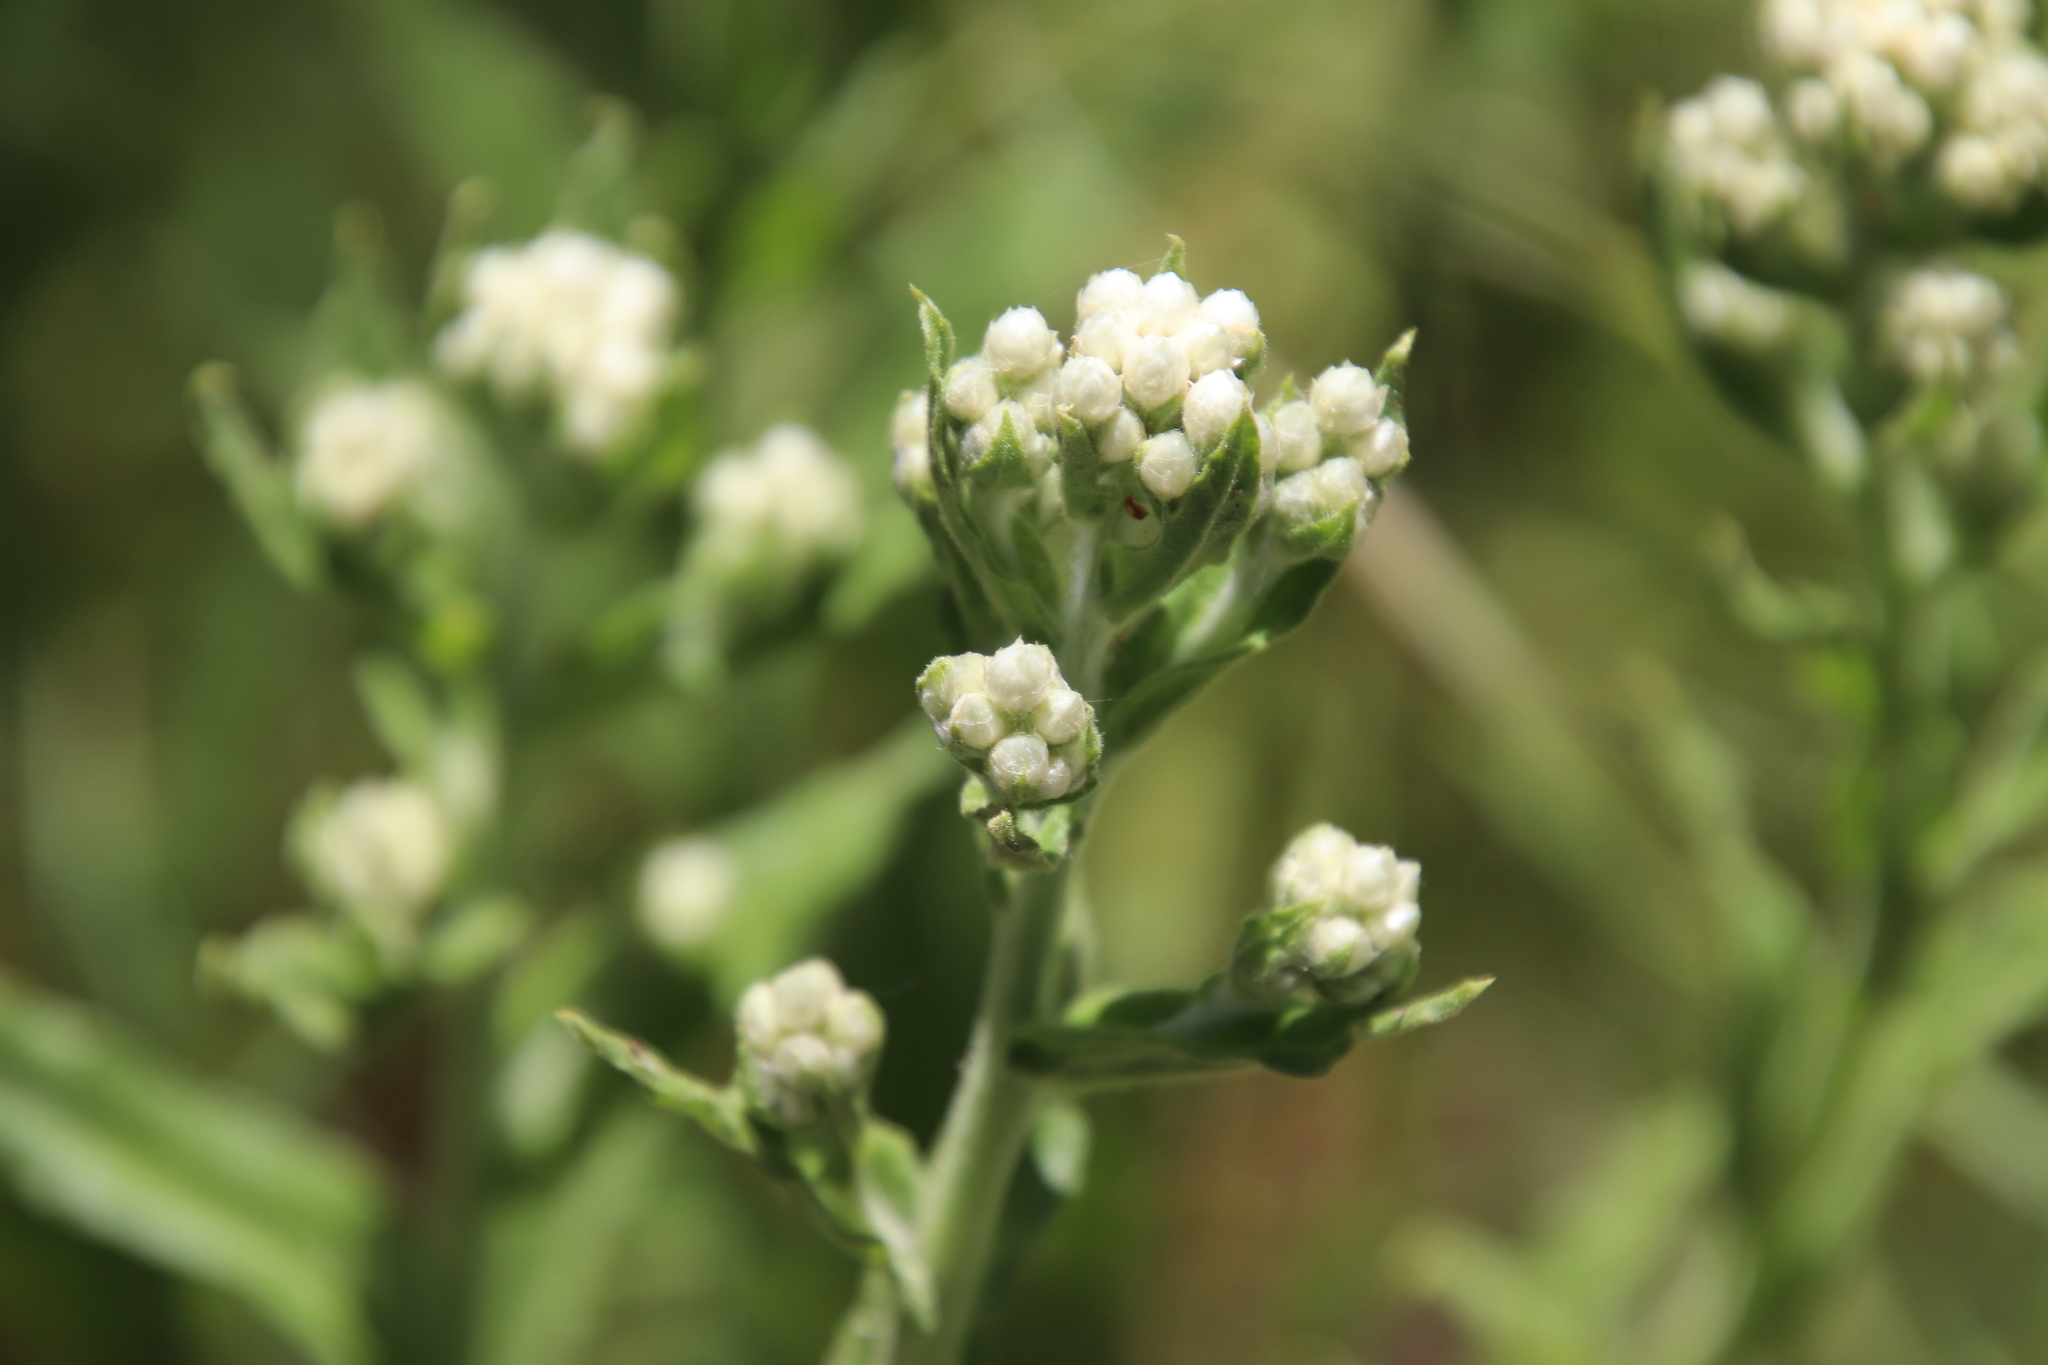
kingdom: Plantae
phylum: Tracheophyta
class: Magnoliopsida
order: Asterales
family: Asteraceae
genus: Pseudognaphalium
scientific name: Pseudognaphalium californicum
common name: California rabbit-tobacco
